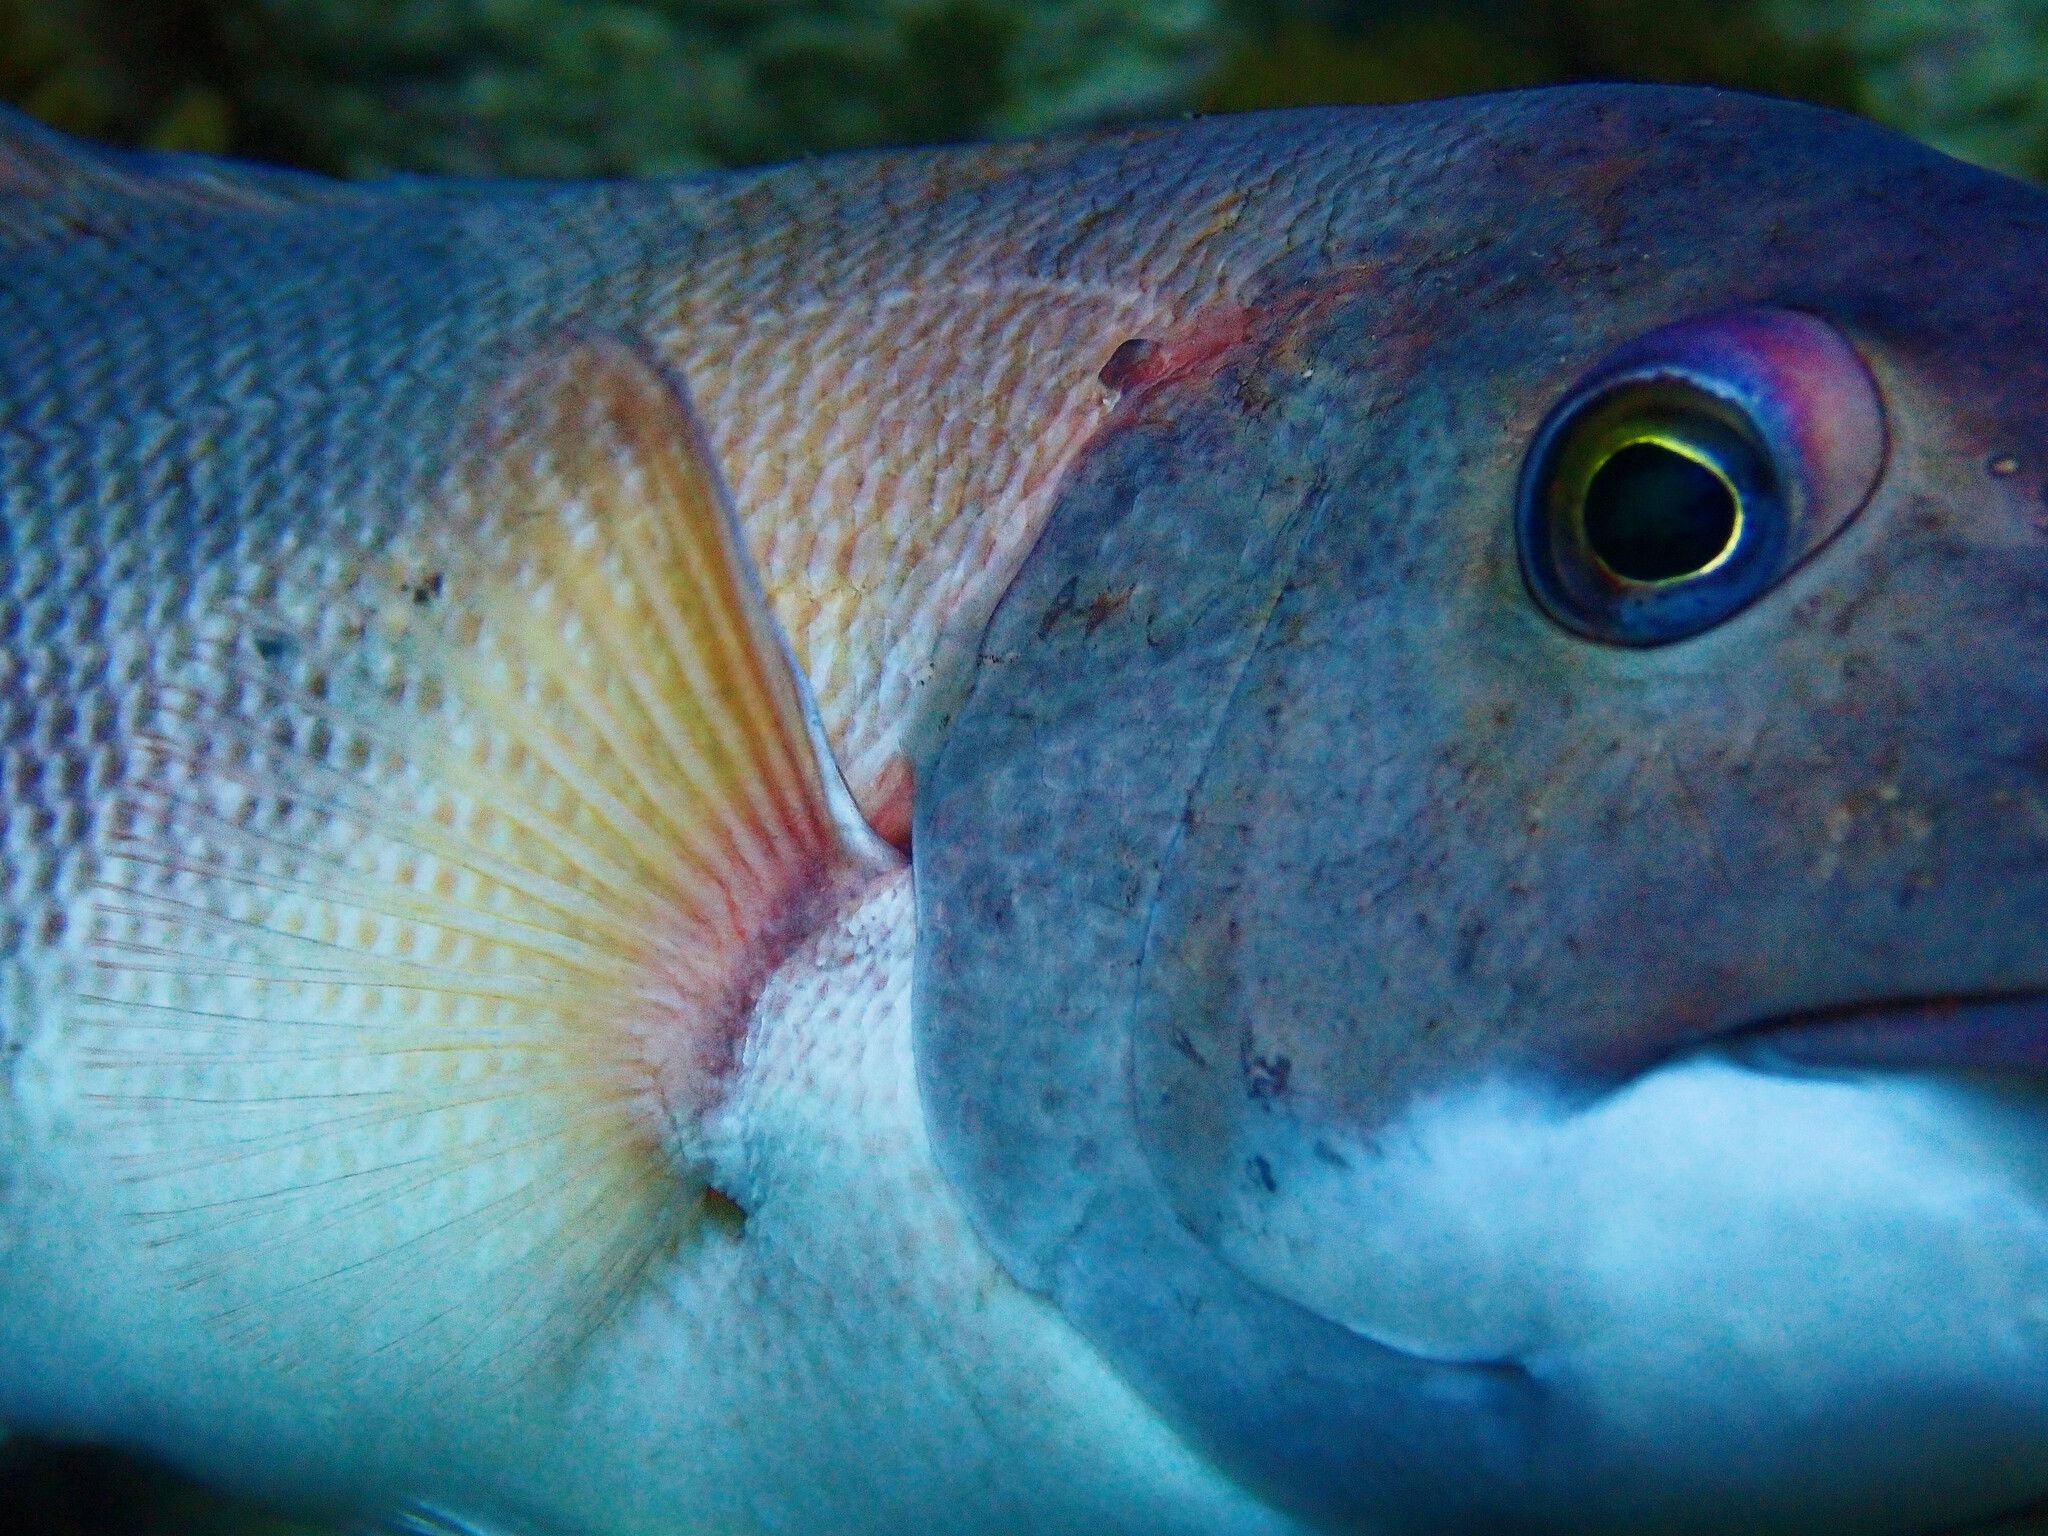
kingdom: Animalia
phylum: Chordata
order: Perciformes
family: Labridae
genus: Semicossyphus
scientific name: Semicossyphus pulcher
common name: California sheephead
